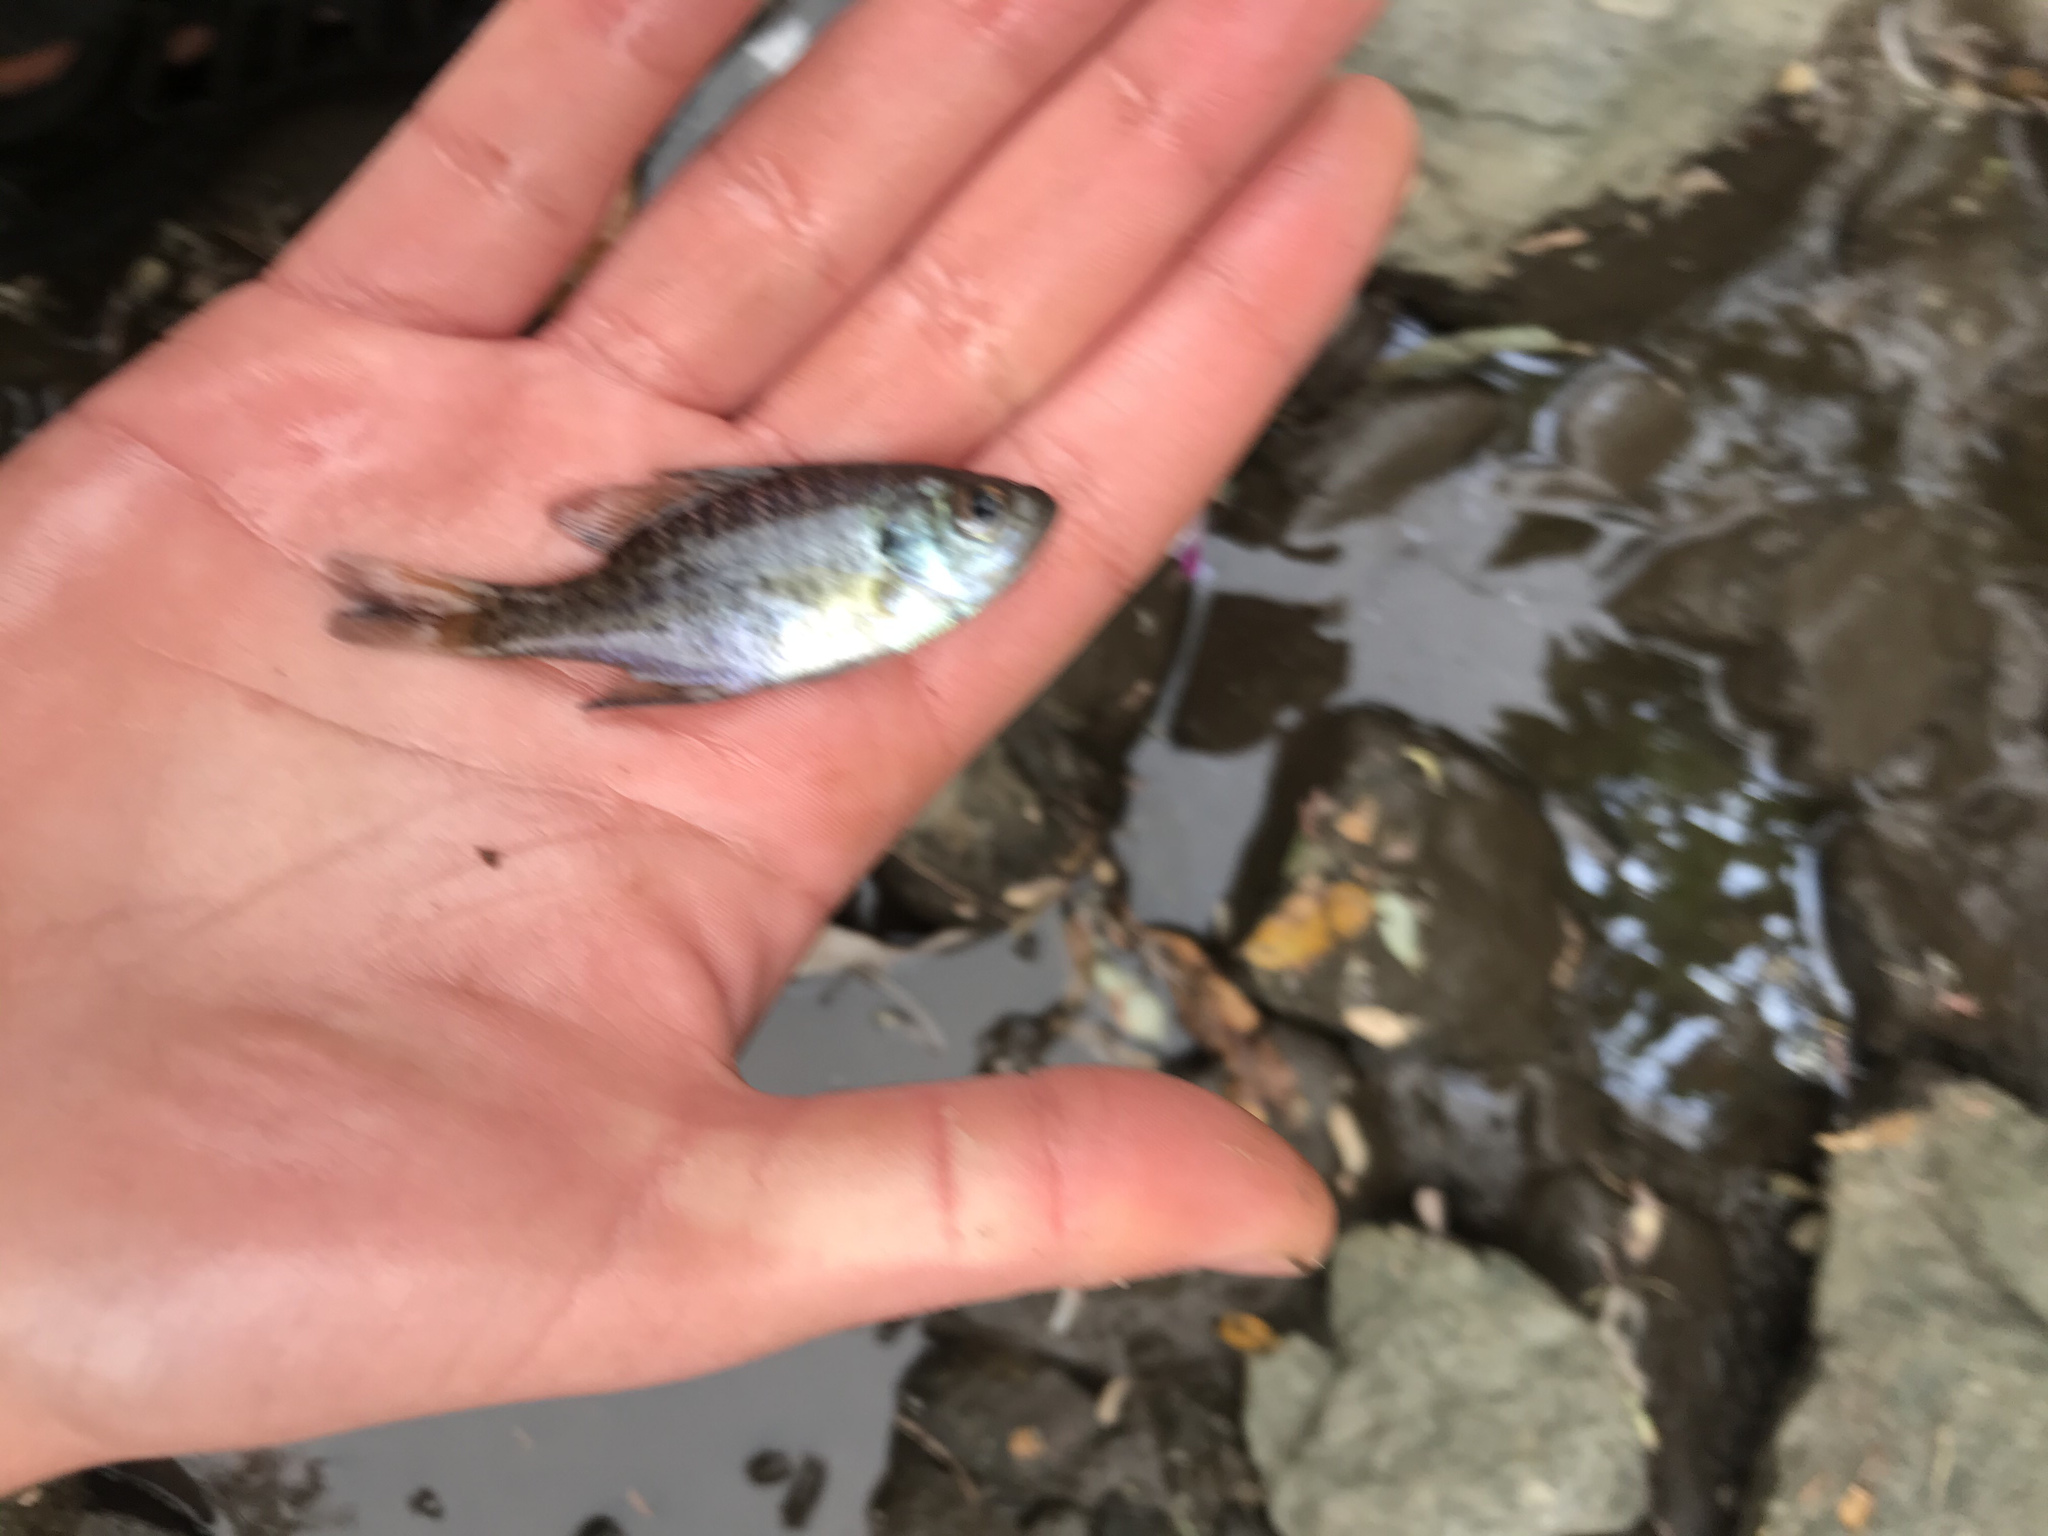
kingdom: Animalia
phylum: Chordata
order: Perciformes
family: Centrarchidae
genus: Lepomis
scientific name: Lepomis macrochirus
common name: Bluegill
